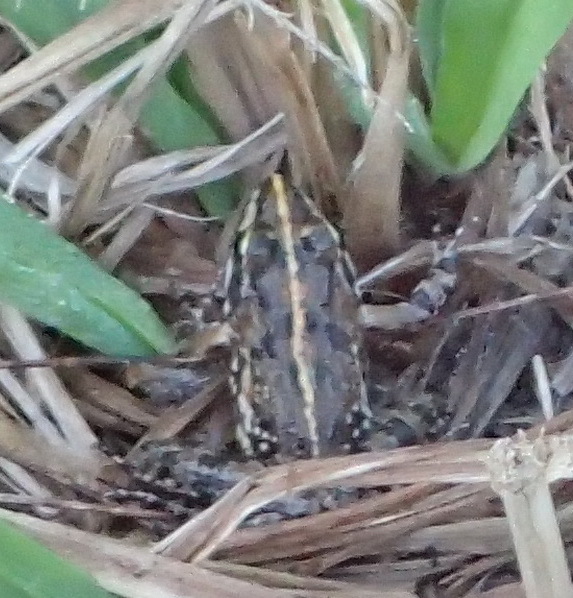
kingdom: Animalia
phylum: Chordata
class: Amphibia
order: Anura
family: Pyxicephalidae
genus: Amietia
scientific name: Amietia fuscigula
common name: Cape rana
